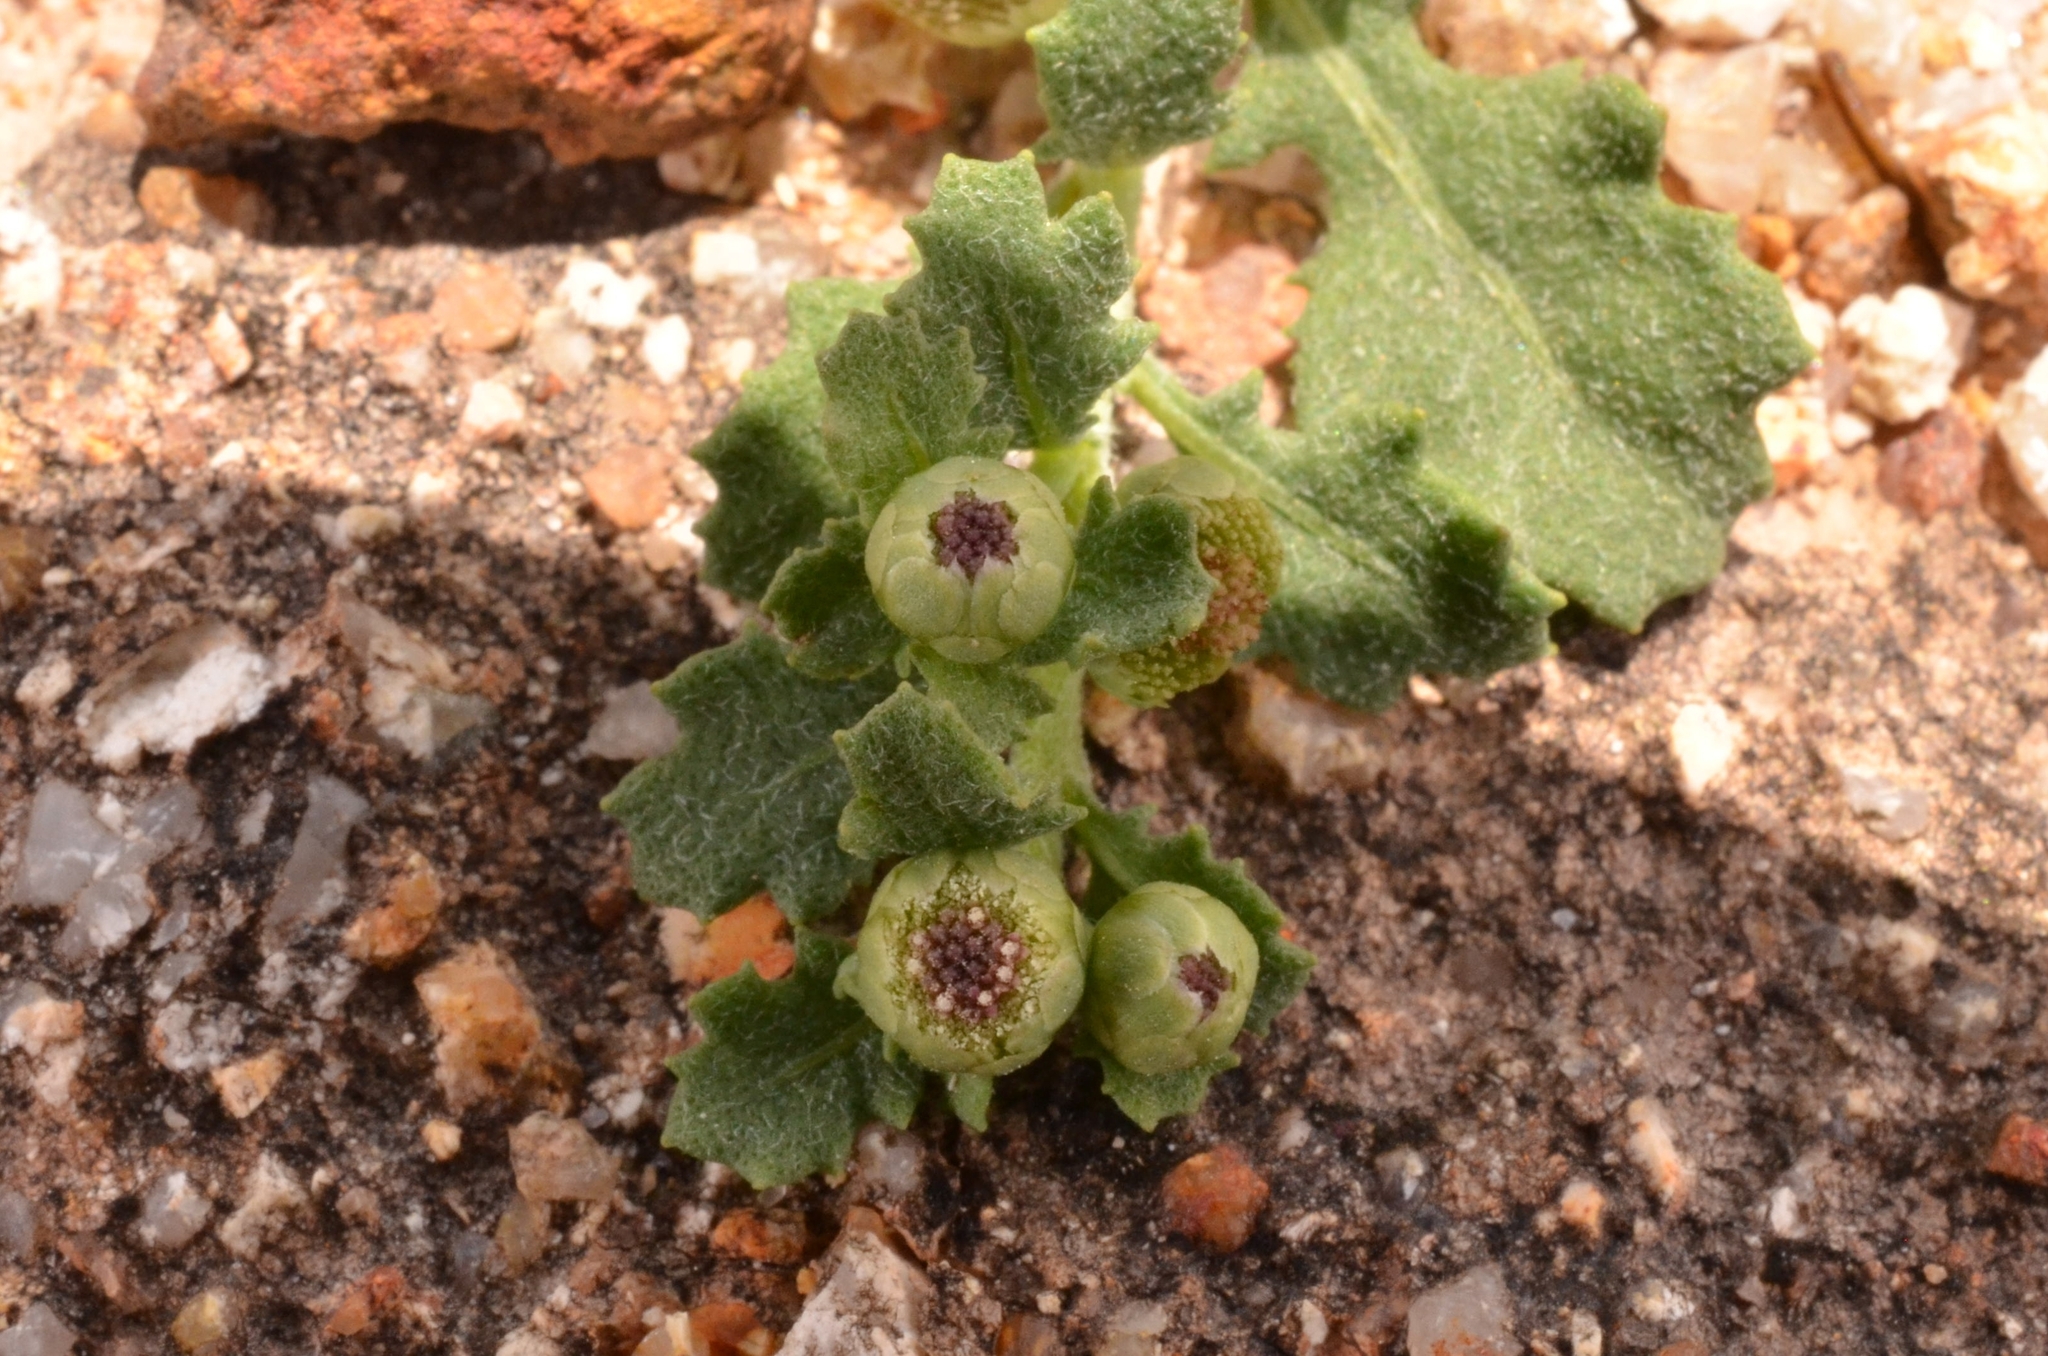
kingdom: Plantae
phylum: Tracheophyta
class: Magnoliopsida
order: Asterales
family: Asteraceae
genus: Sphaeromorphaea
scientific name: Sphaeromorphaea littoralis
